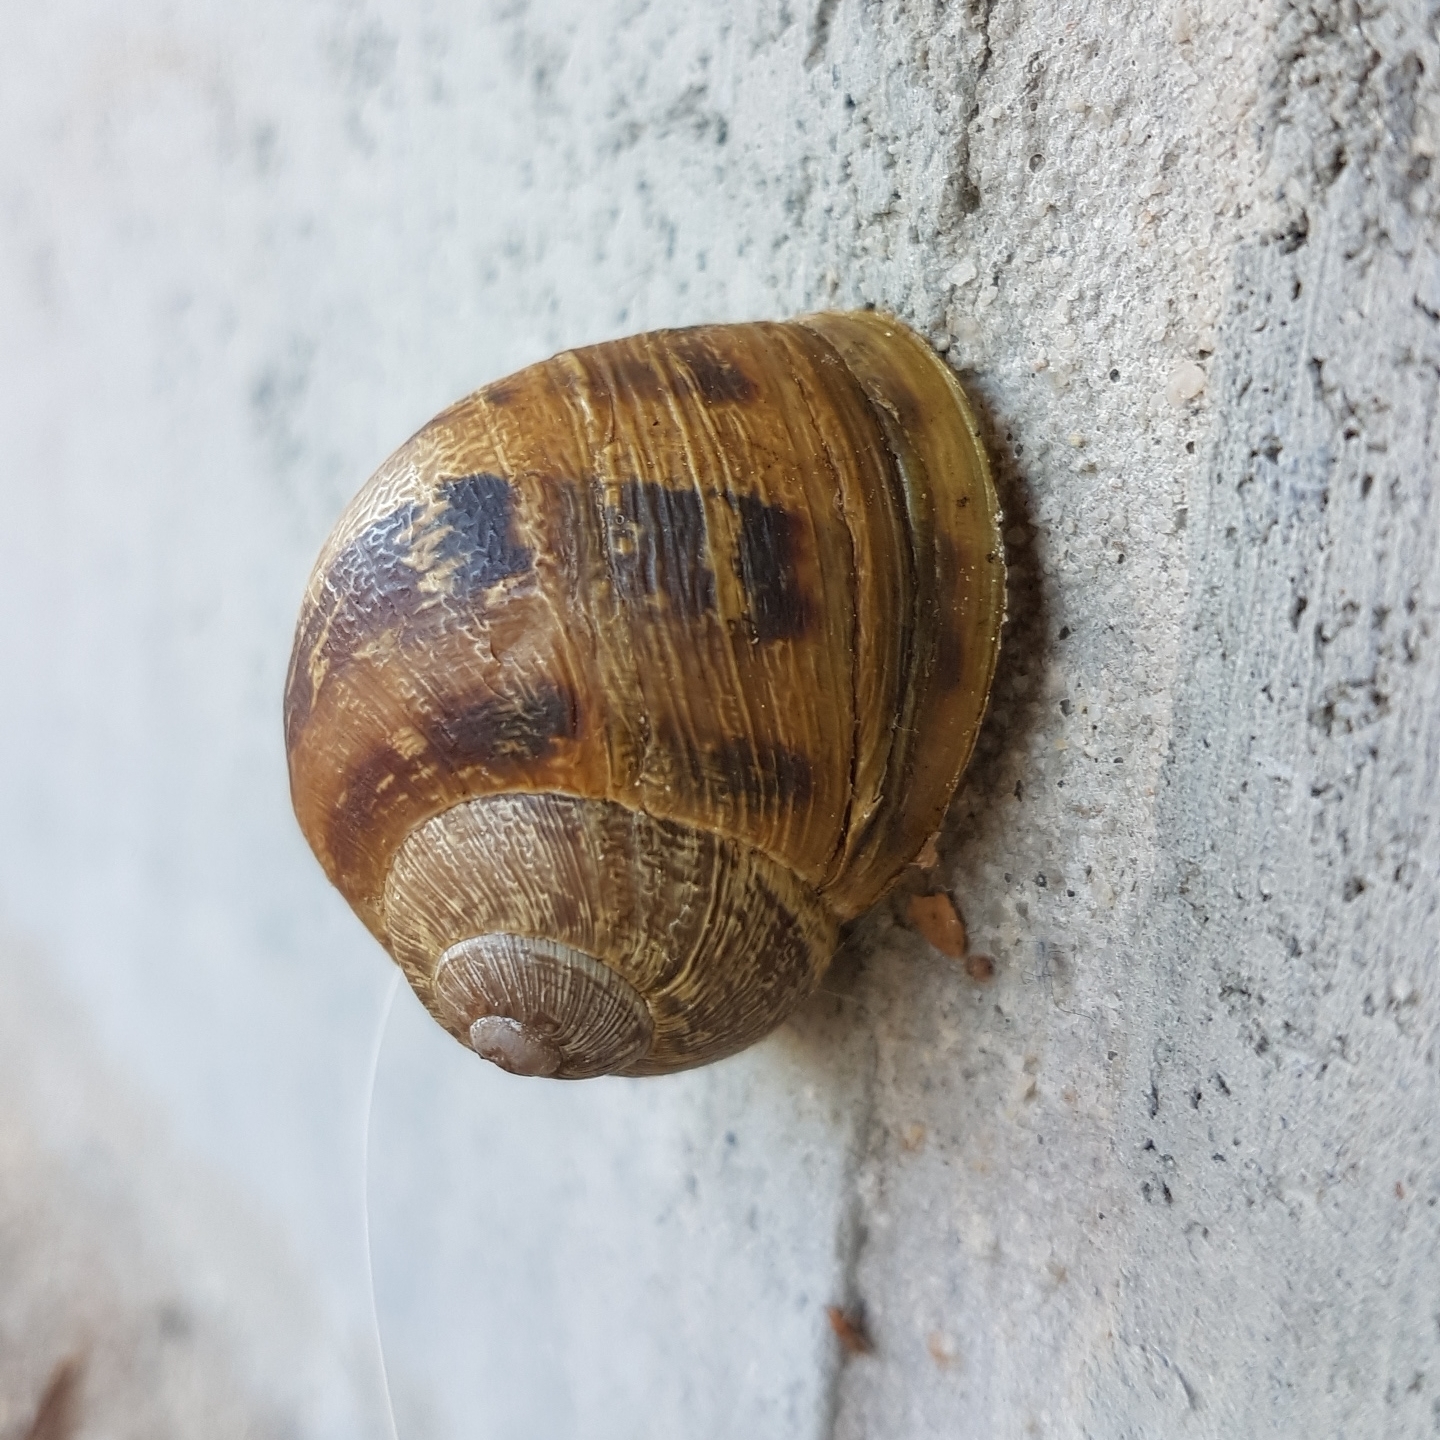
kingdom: Animalia
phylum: Mollusca
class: Gastropoda
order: Stylommatophora
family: Helicidae
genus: Cornu
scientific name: Cornu aspersum
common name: Brown garden snail
